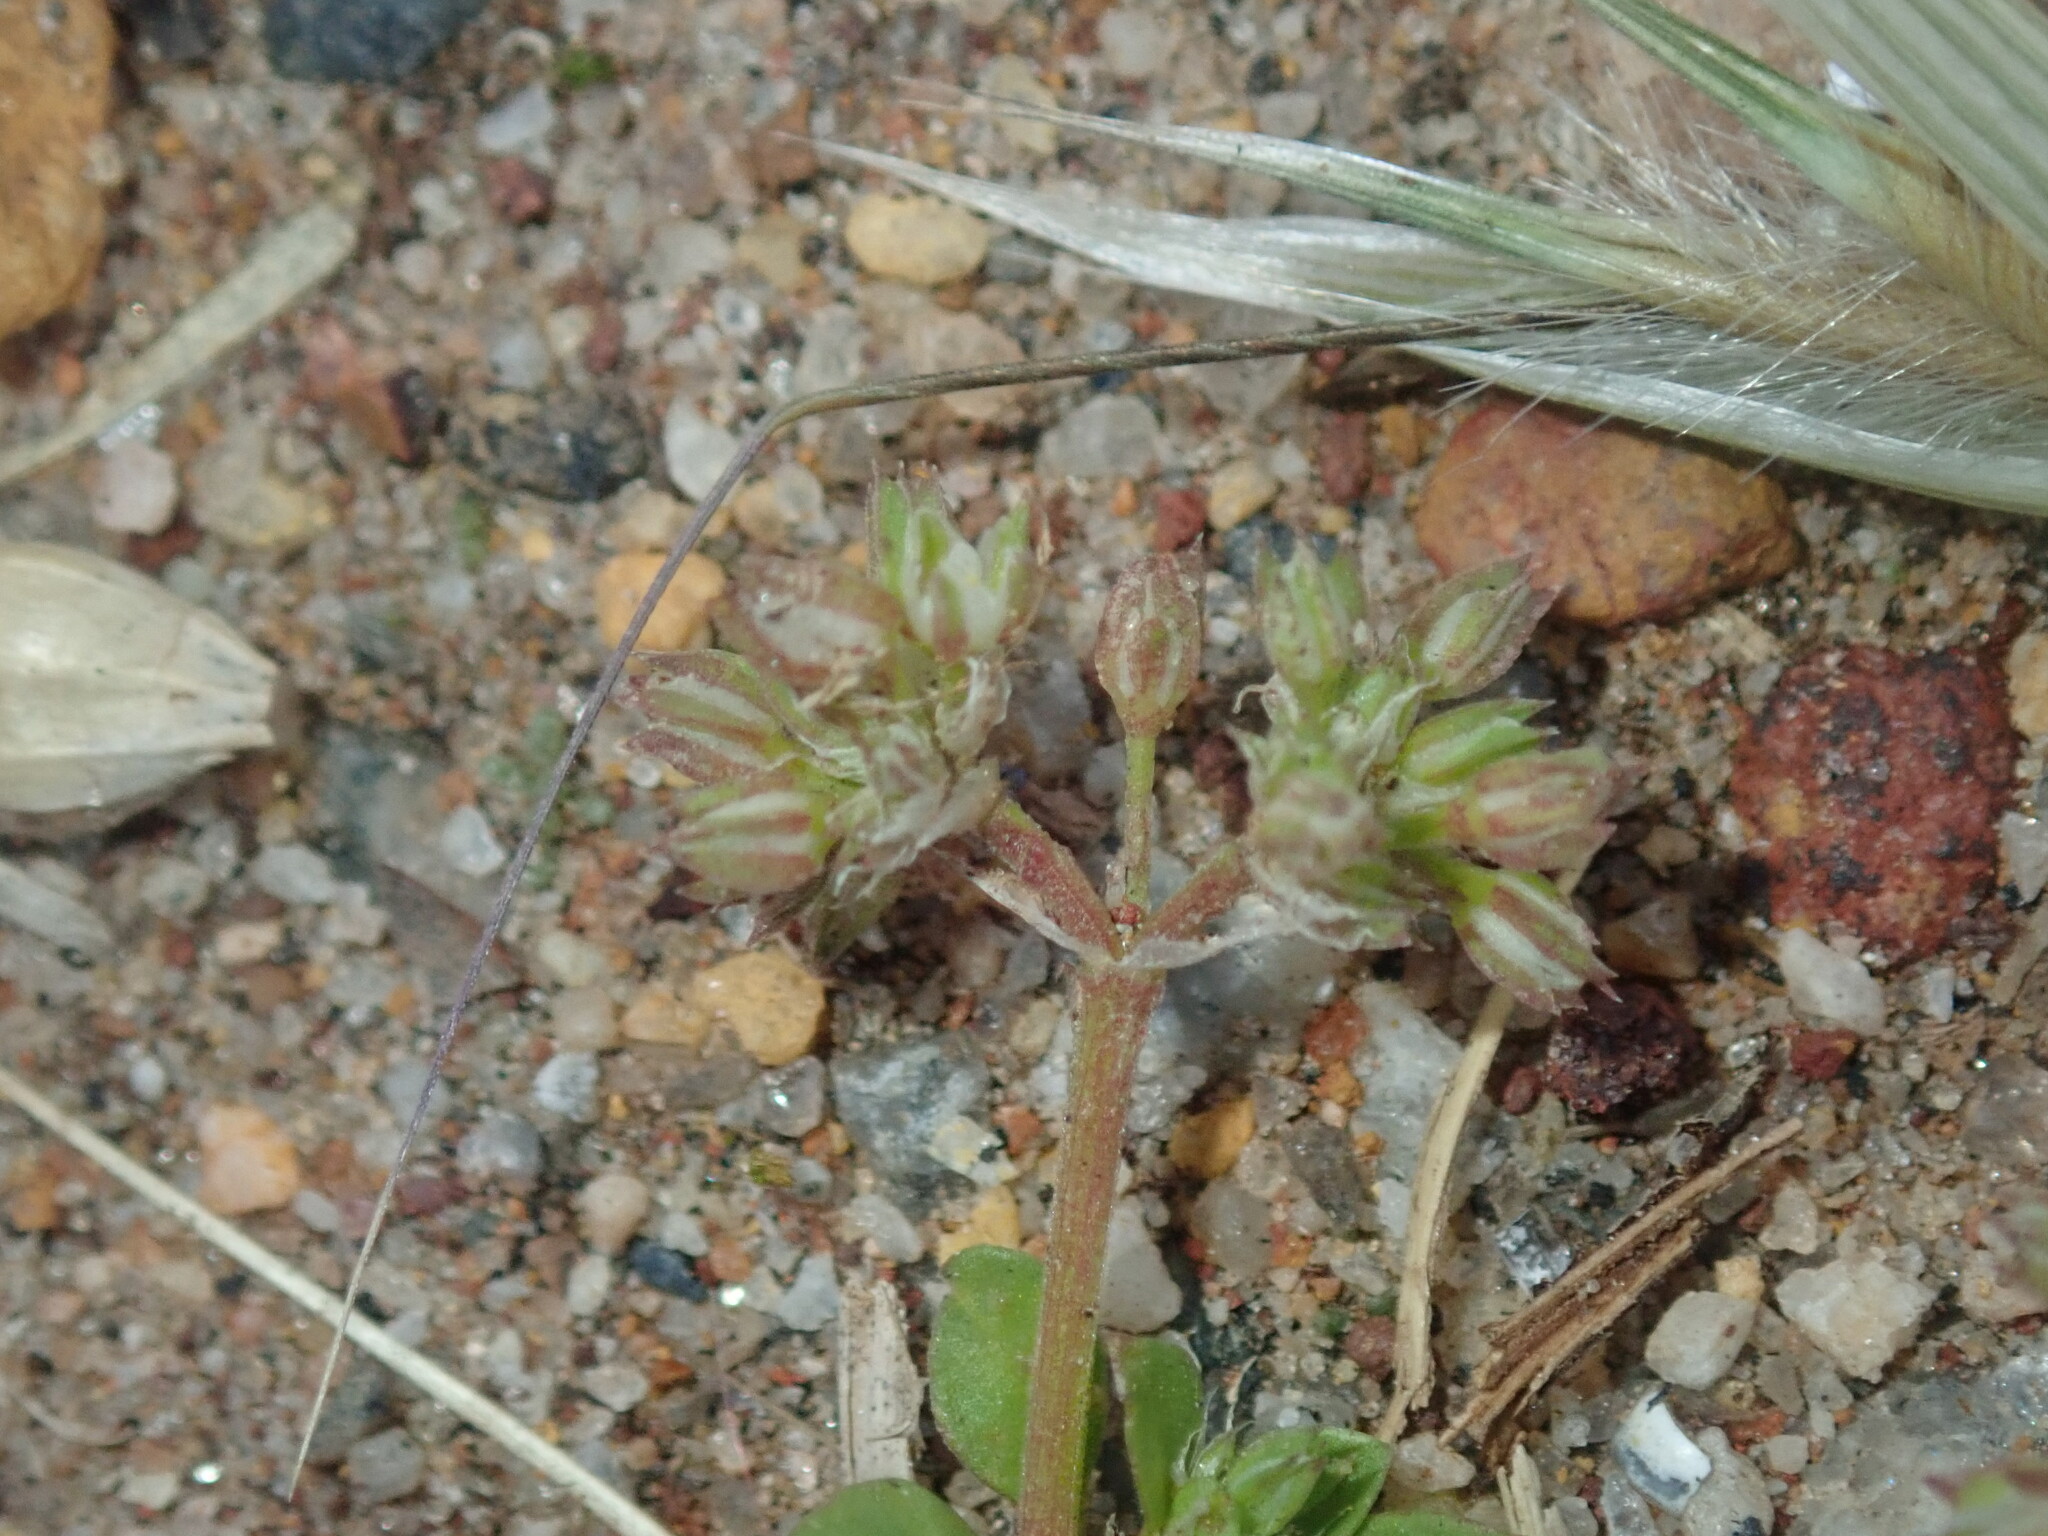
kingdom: Plantae
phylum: Tracheophyta
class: Magnoliopsida
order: Caryophyllales
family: Caryophyllaceae
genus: Polycarpon
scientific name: Polycarpon tetraphyllum
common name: Four-leaved all-seed
